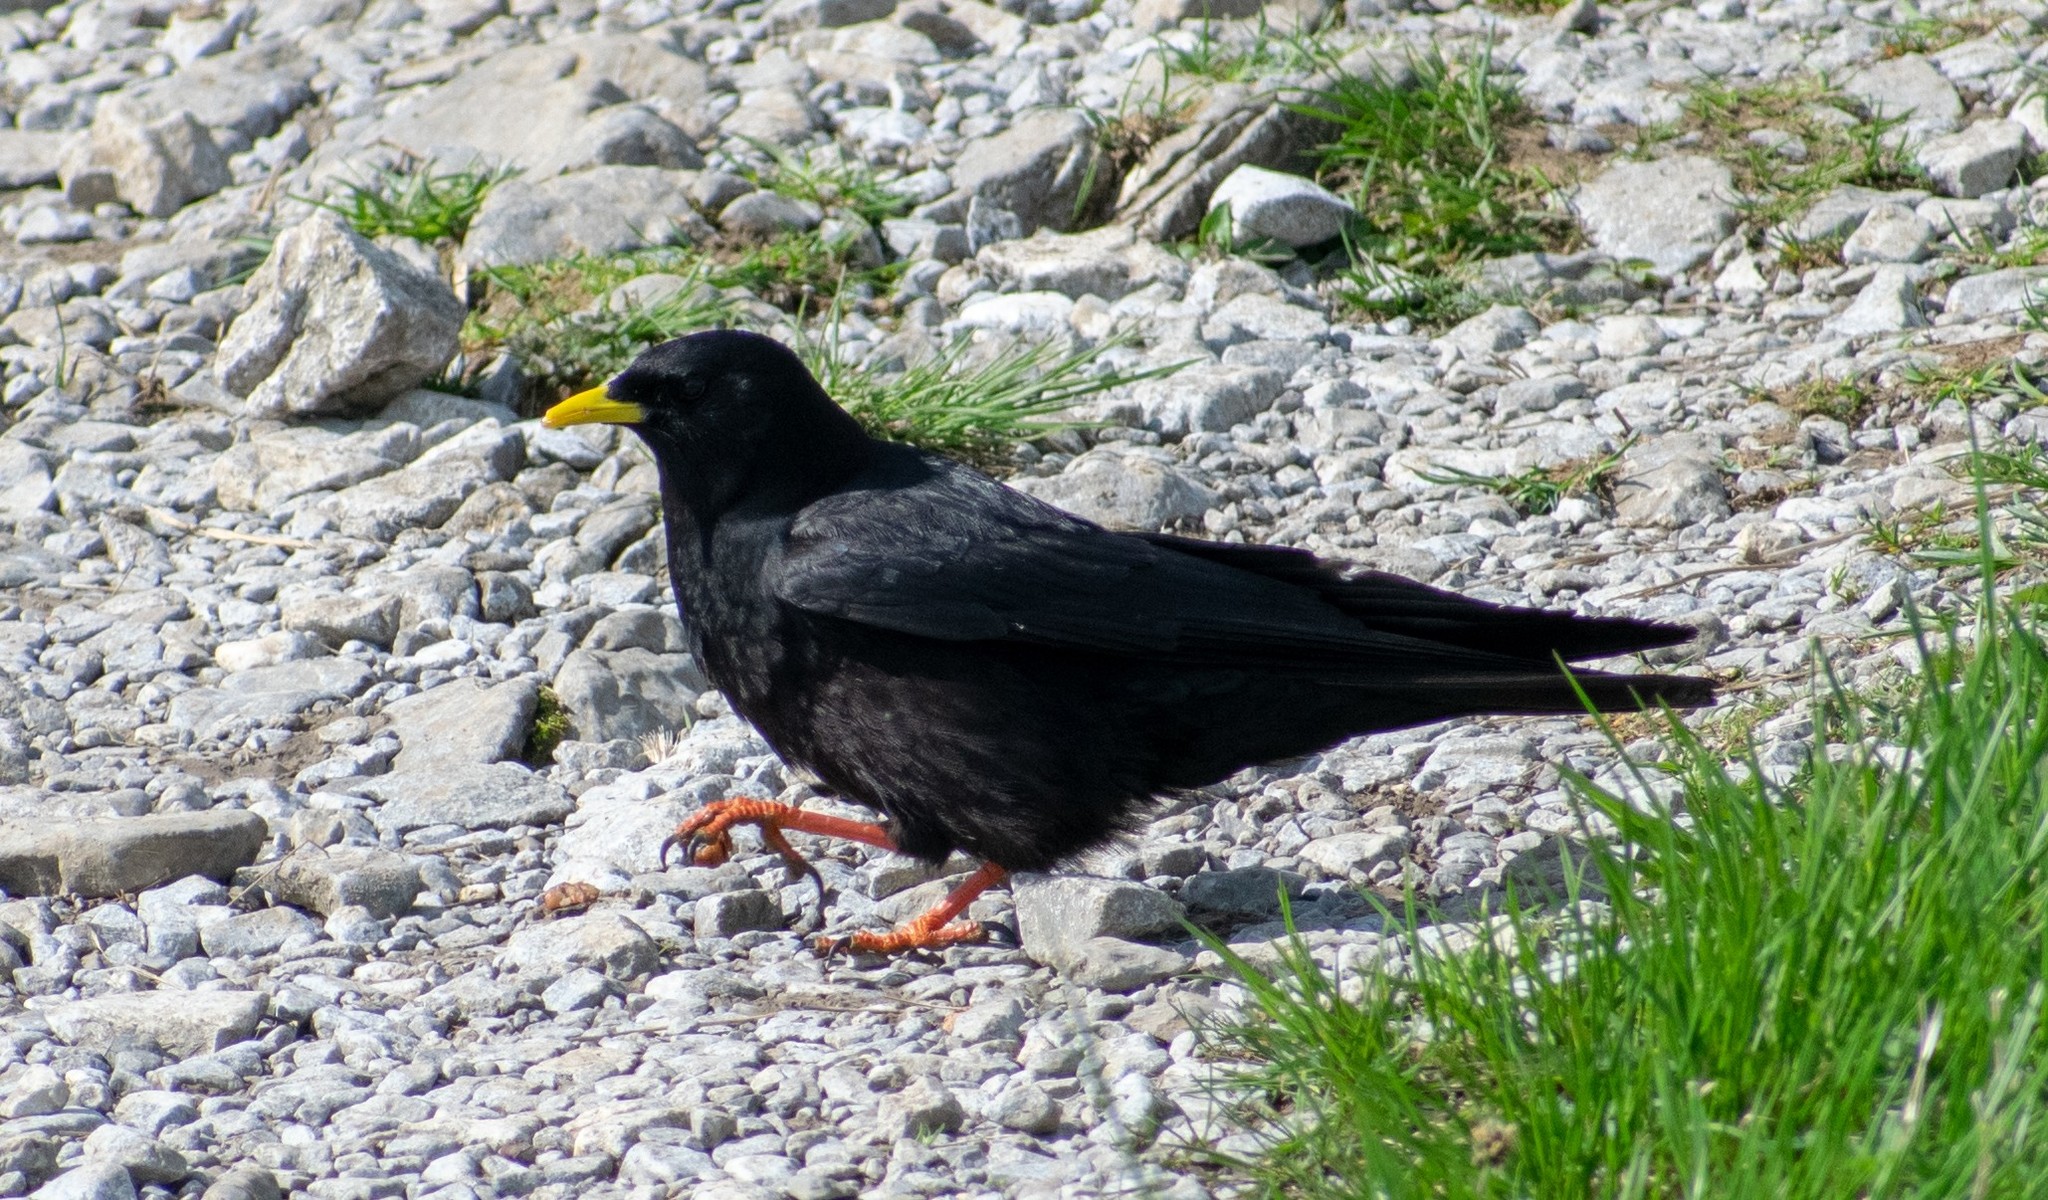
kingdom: Animalia
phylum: Chordata
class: Aves
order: Passeriformes
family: Corvidae
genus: Pyrrhocorax
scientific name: Pyrrhocorax graculus
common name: Alpine chough
